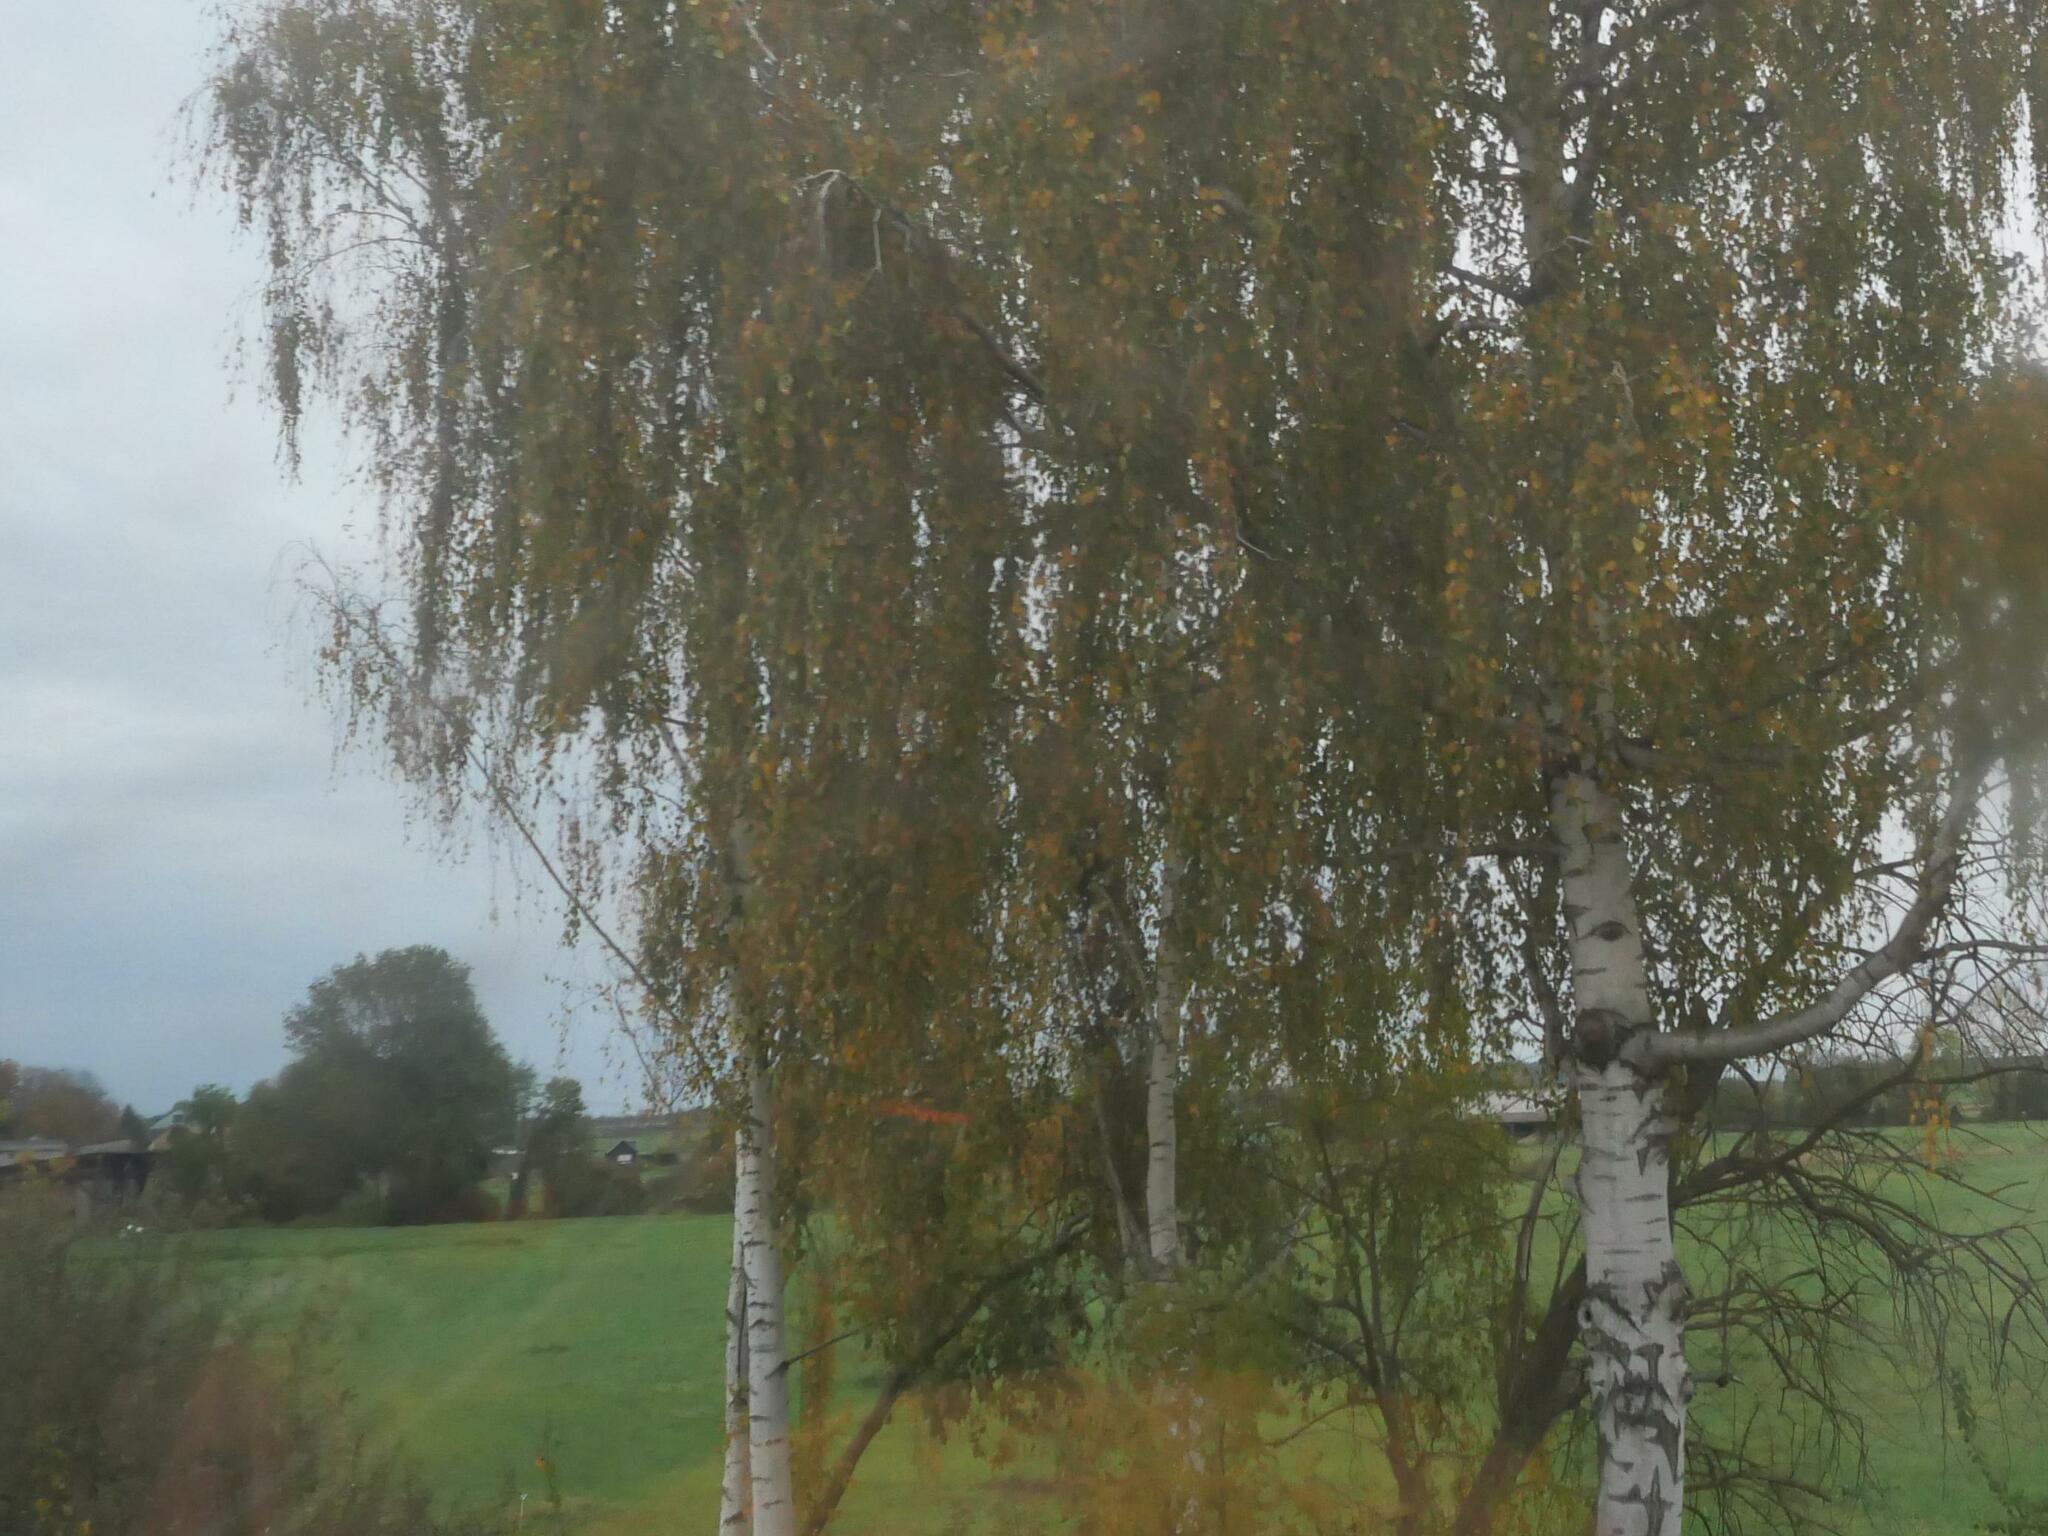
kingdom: Plantae
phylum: Tracheophyta
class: Magnoliopsida
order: Fagales
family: Betulaceae
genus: Betula
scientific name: Betula pendula
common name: Silver birch
